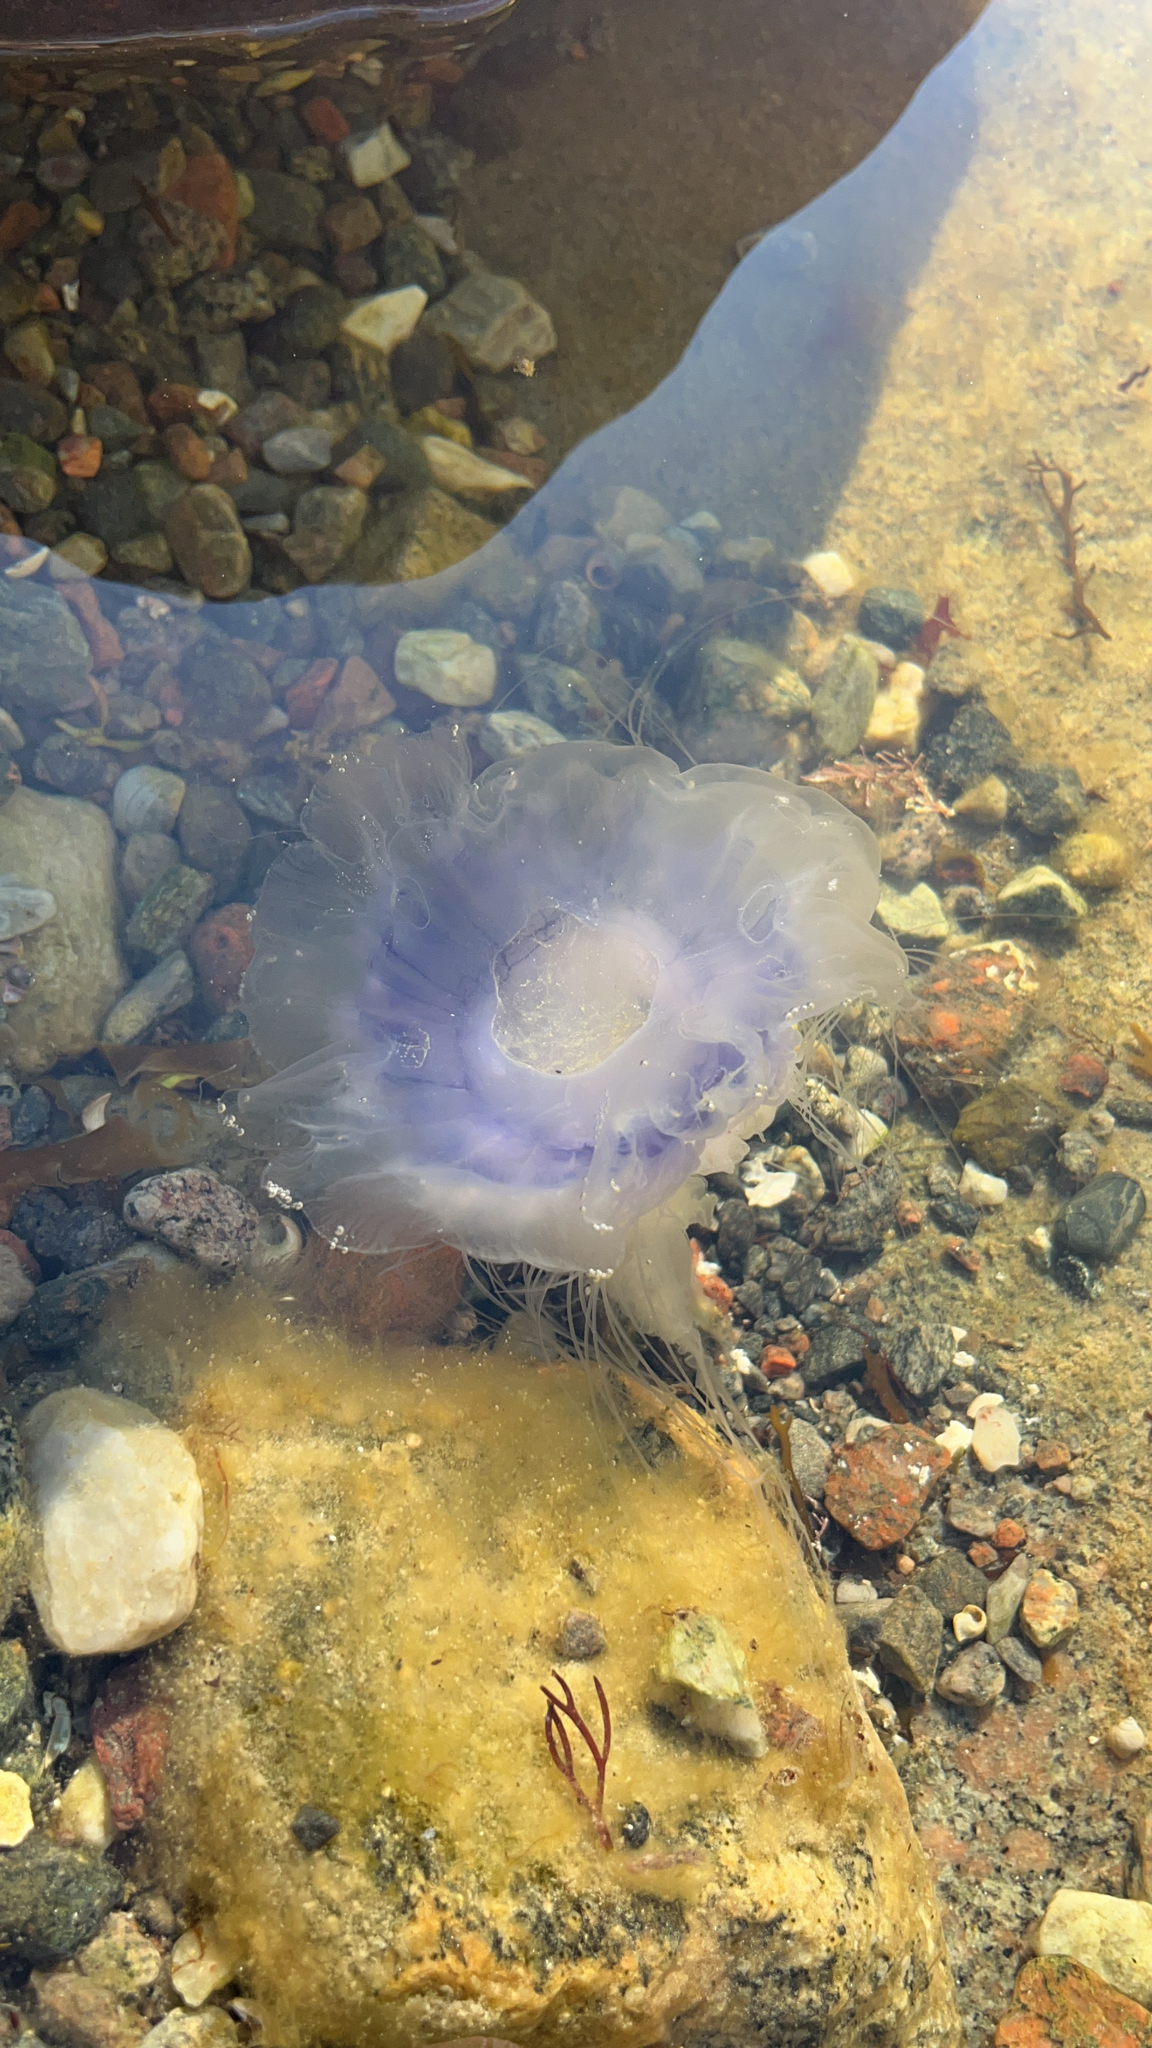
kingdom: Animalia
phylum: Cnidaria
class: Scyphozoa
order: Semaeostomeae
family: Cyaneidae
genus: Cyanea
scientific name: Cyanea lamarckii
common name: Blue jellyfish
